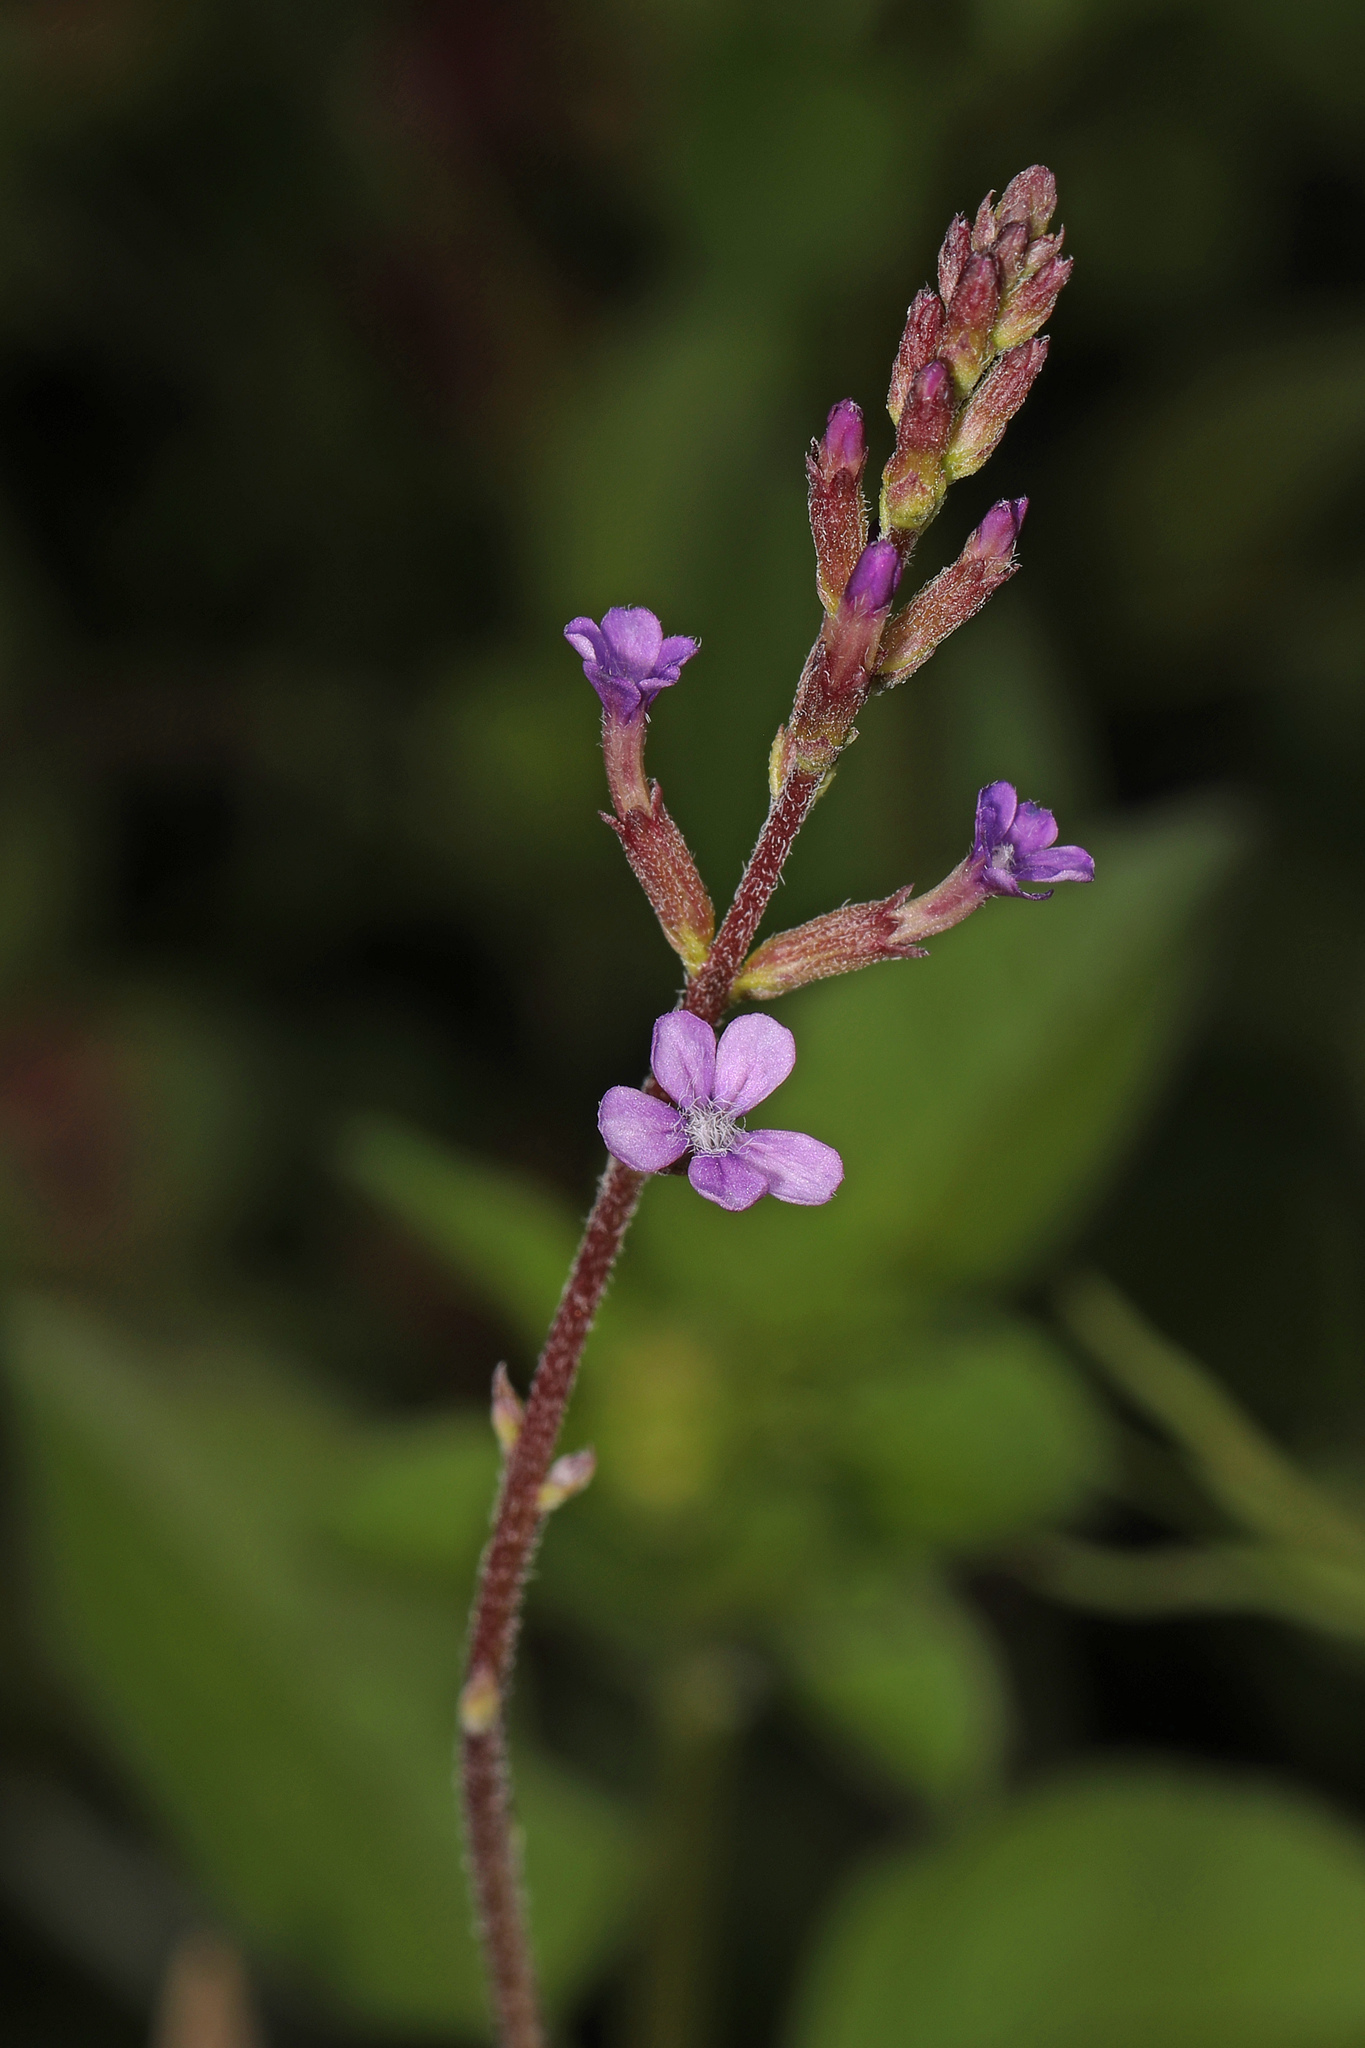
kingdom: Plantae
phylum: Tracheophyta
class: Magnoliopsida
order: Lamiales
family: Orobanchaceae
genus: Buchnera
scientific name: Buchnera floridana
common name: Florida bluehearts
